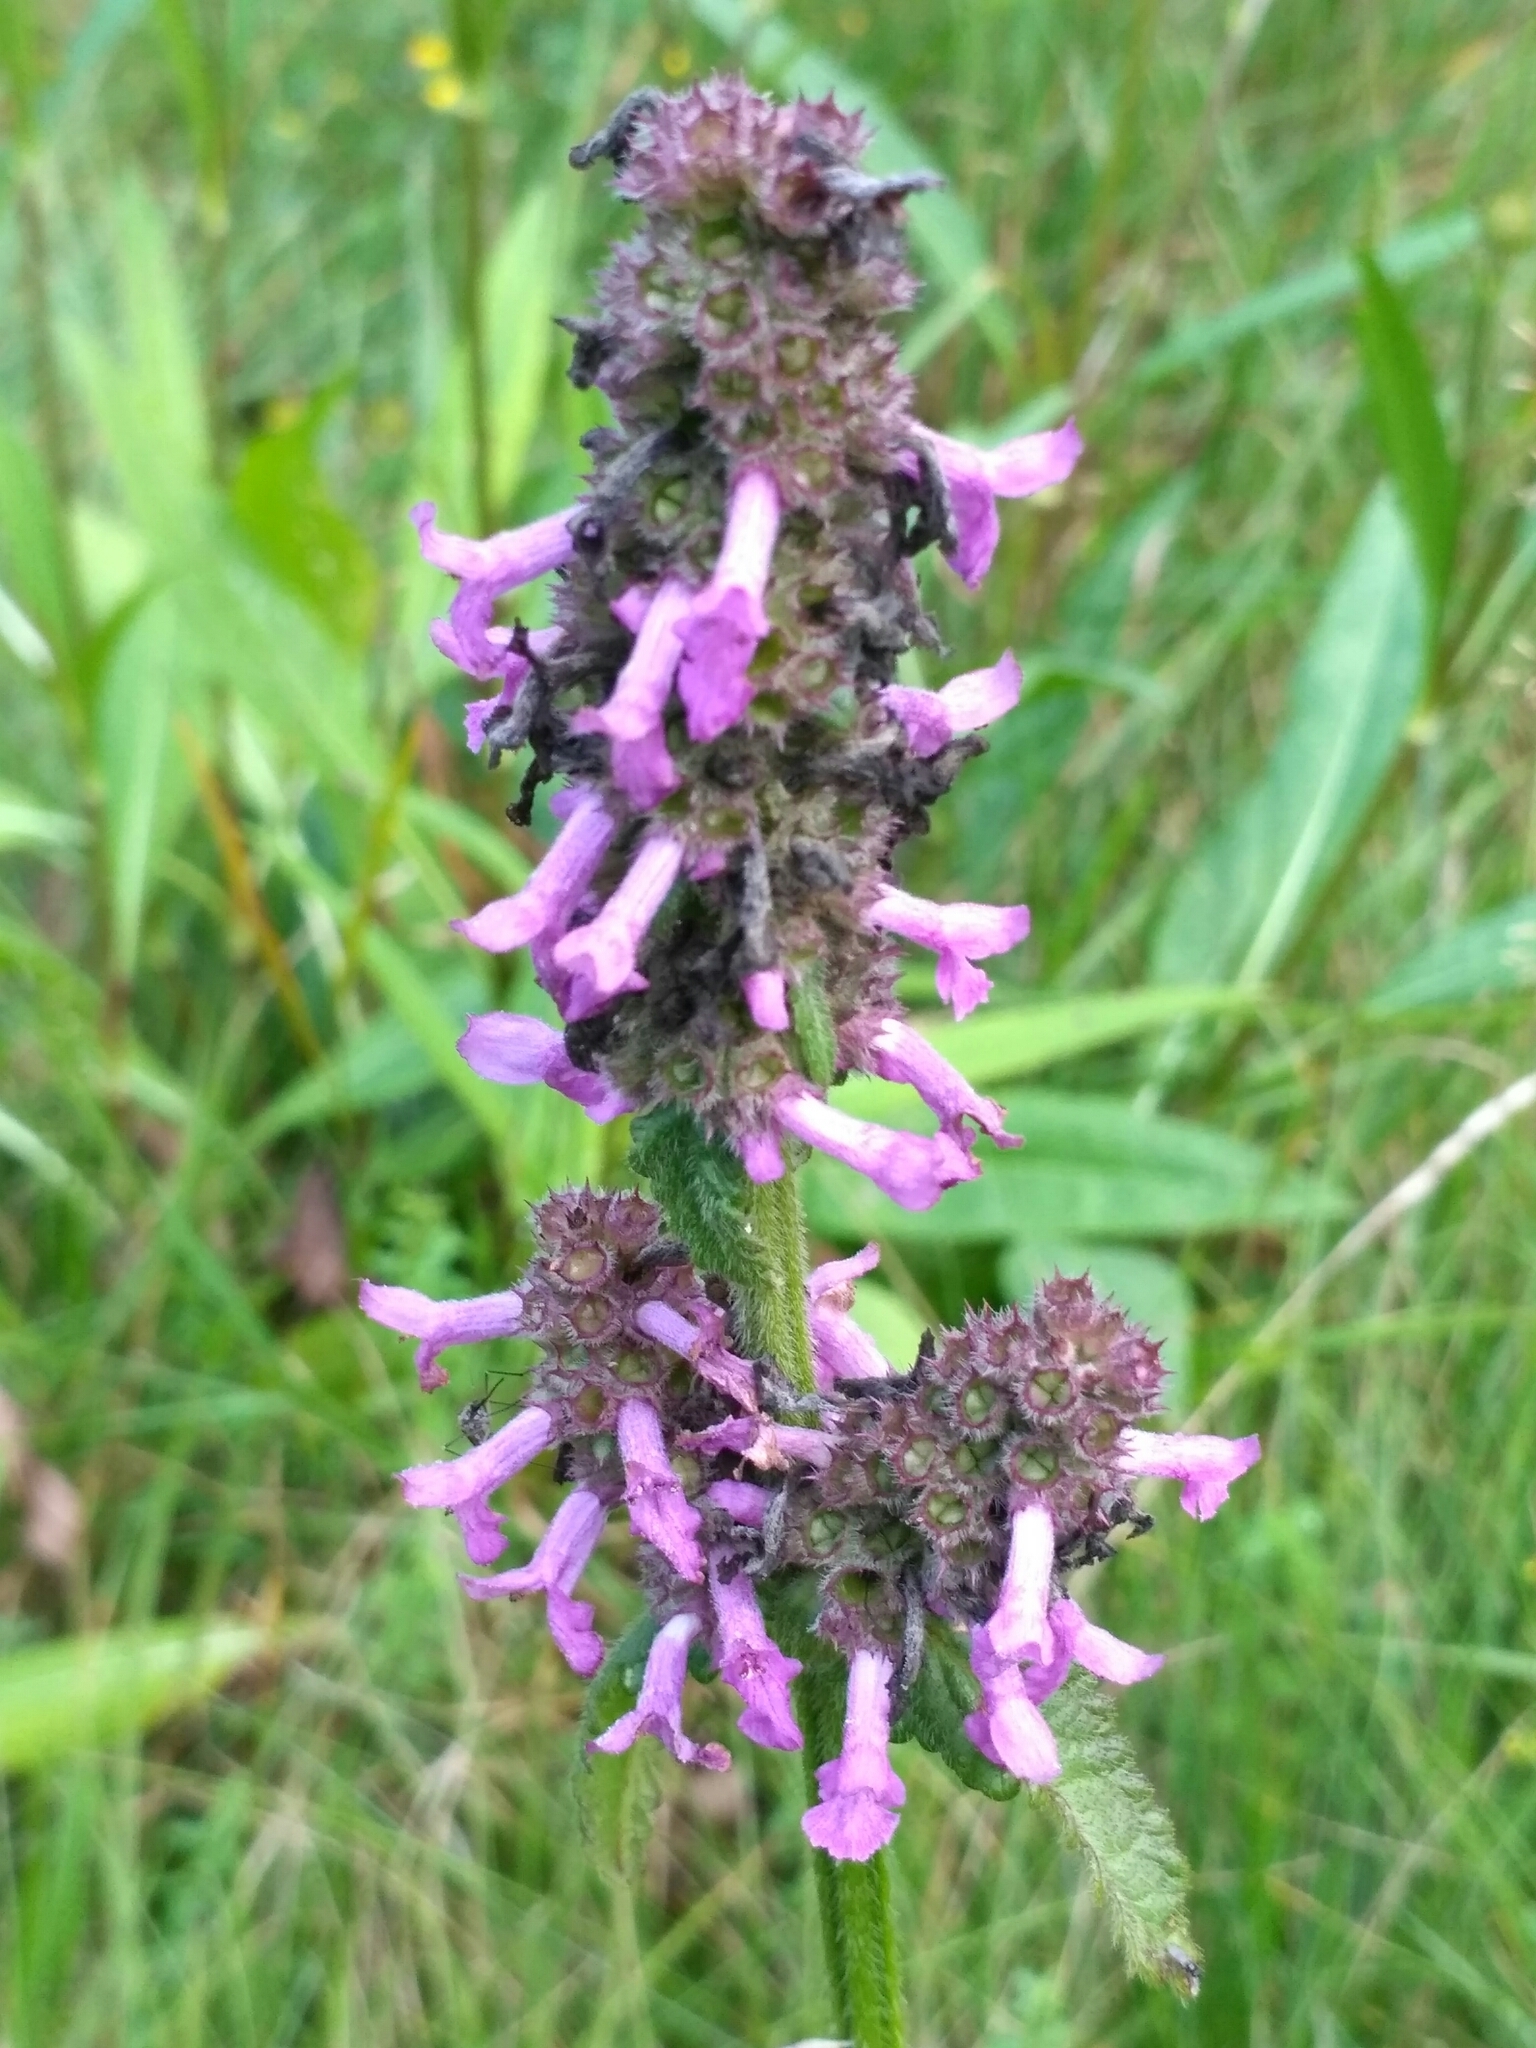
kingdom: Plantae
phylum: Tracheophyta
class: Magnoliopsida
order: Lamiales
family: Lamiaceae
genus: Betonica
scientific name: Betonica officinalis
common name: Bishop's-wort
